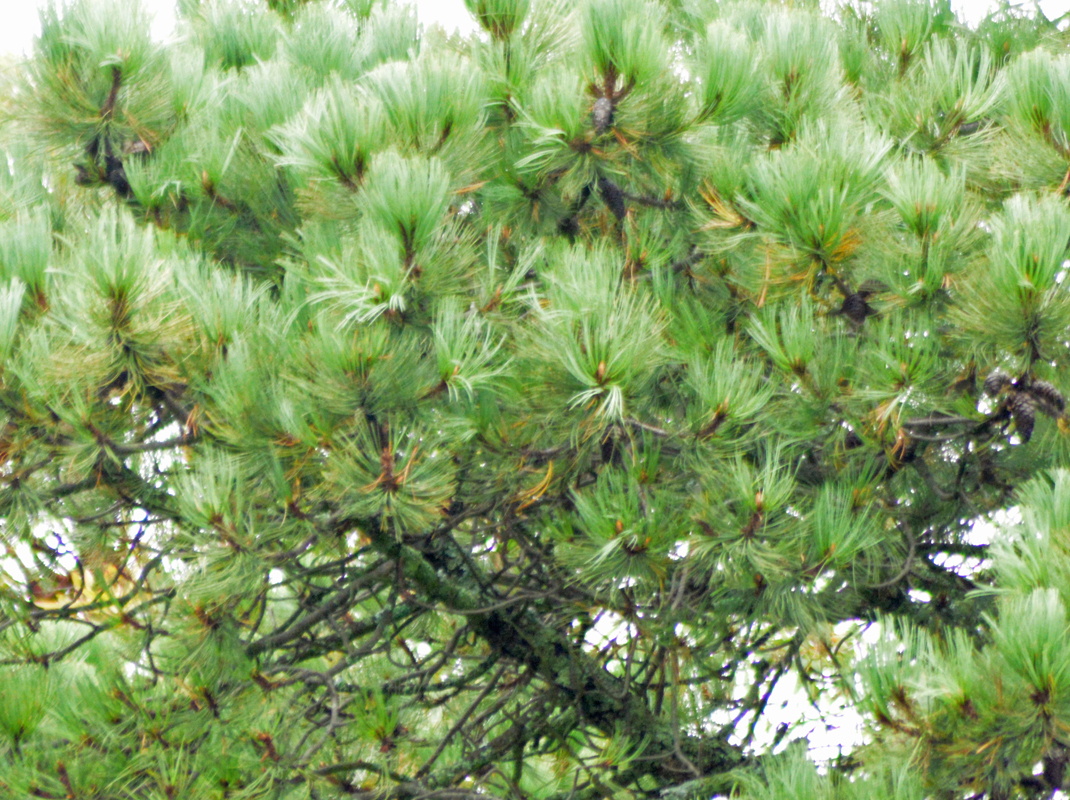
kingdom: Plantae
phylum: Tracheophyta
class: Pinopsida
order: Pinales
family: Pinaceae
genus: Pinus
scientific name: Pinus hartwegii
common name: Hartweg's pine
